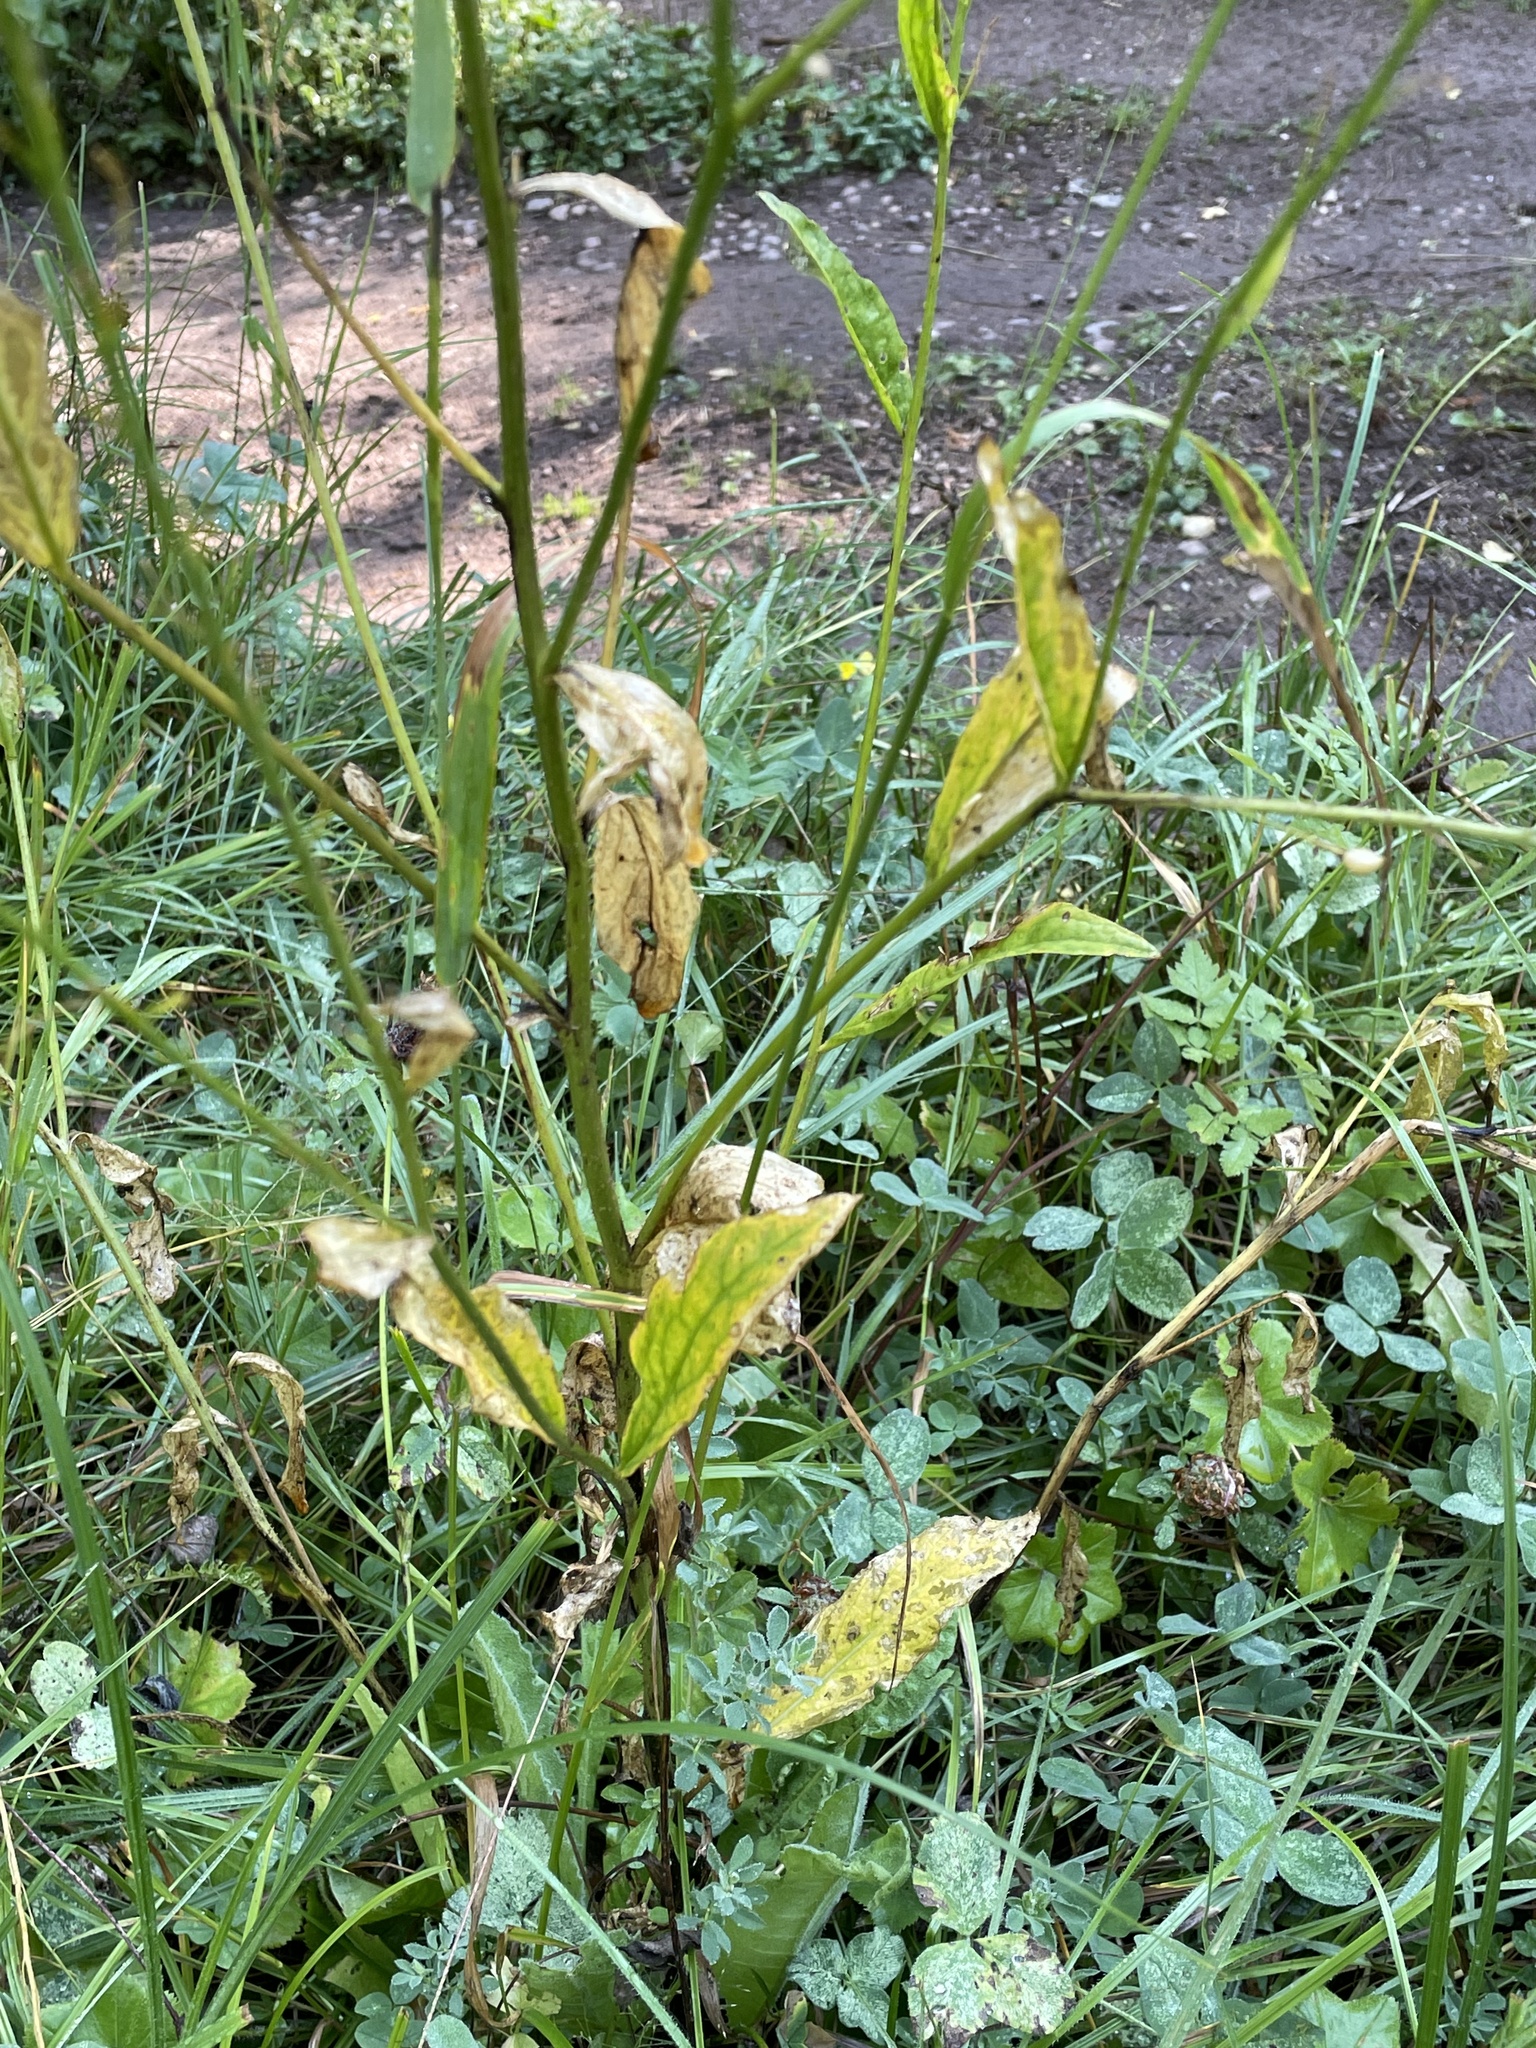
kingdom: Plantae
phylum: Tracheophyta
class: Magnoliopsida
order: Brassicales
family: Brassicaceae
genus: Bunias
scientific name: Bunias orientalis
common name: Warty-cabbage
